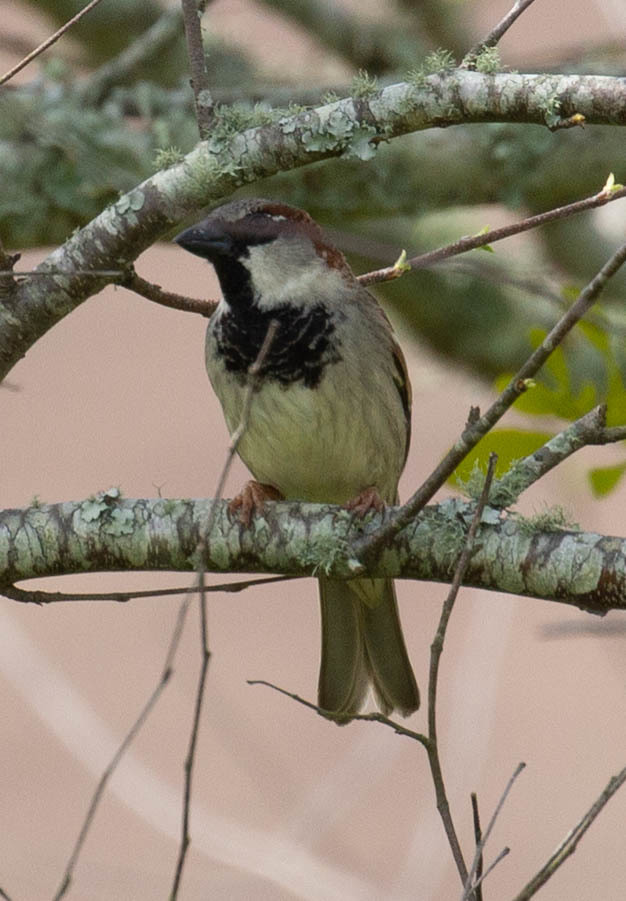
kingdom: Animalia
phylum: Chordata
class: Aves
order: Passeriformes
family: Passeridae
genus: Passer
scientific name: Passer domesticus
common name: House sparrow
